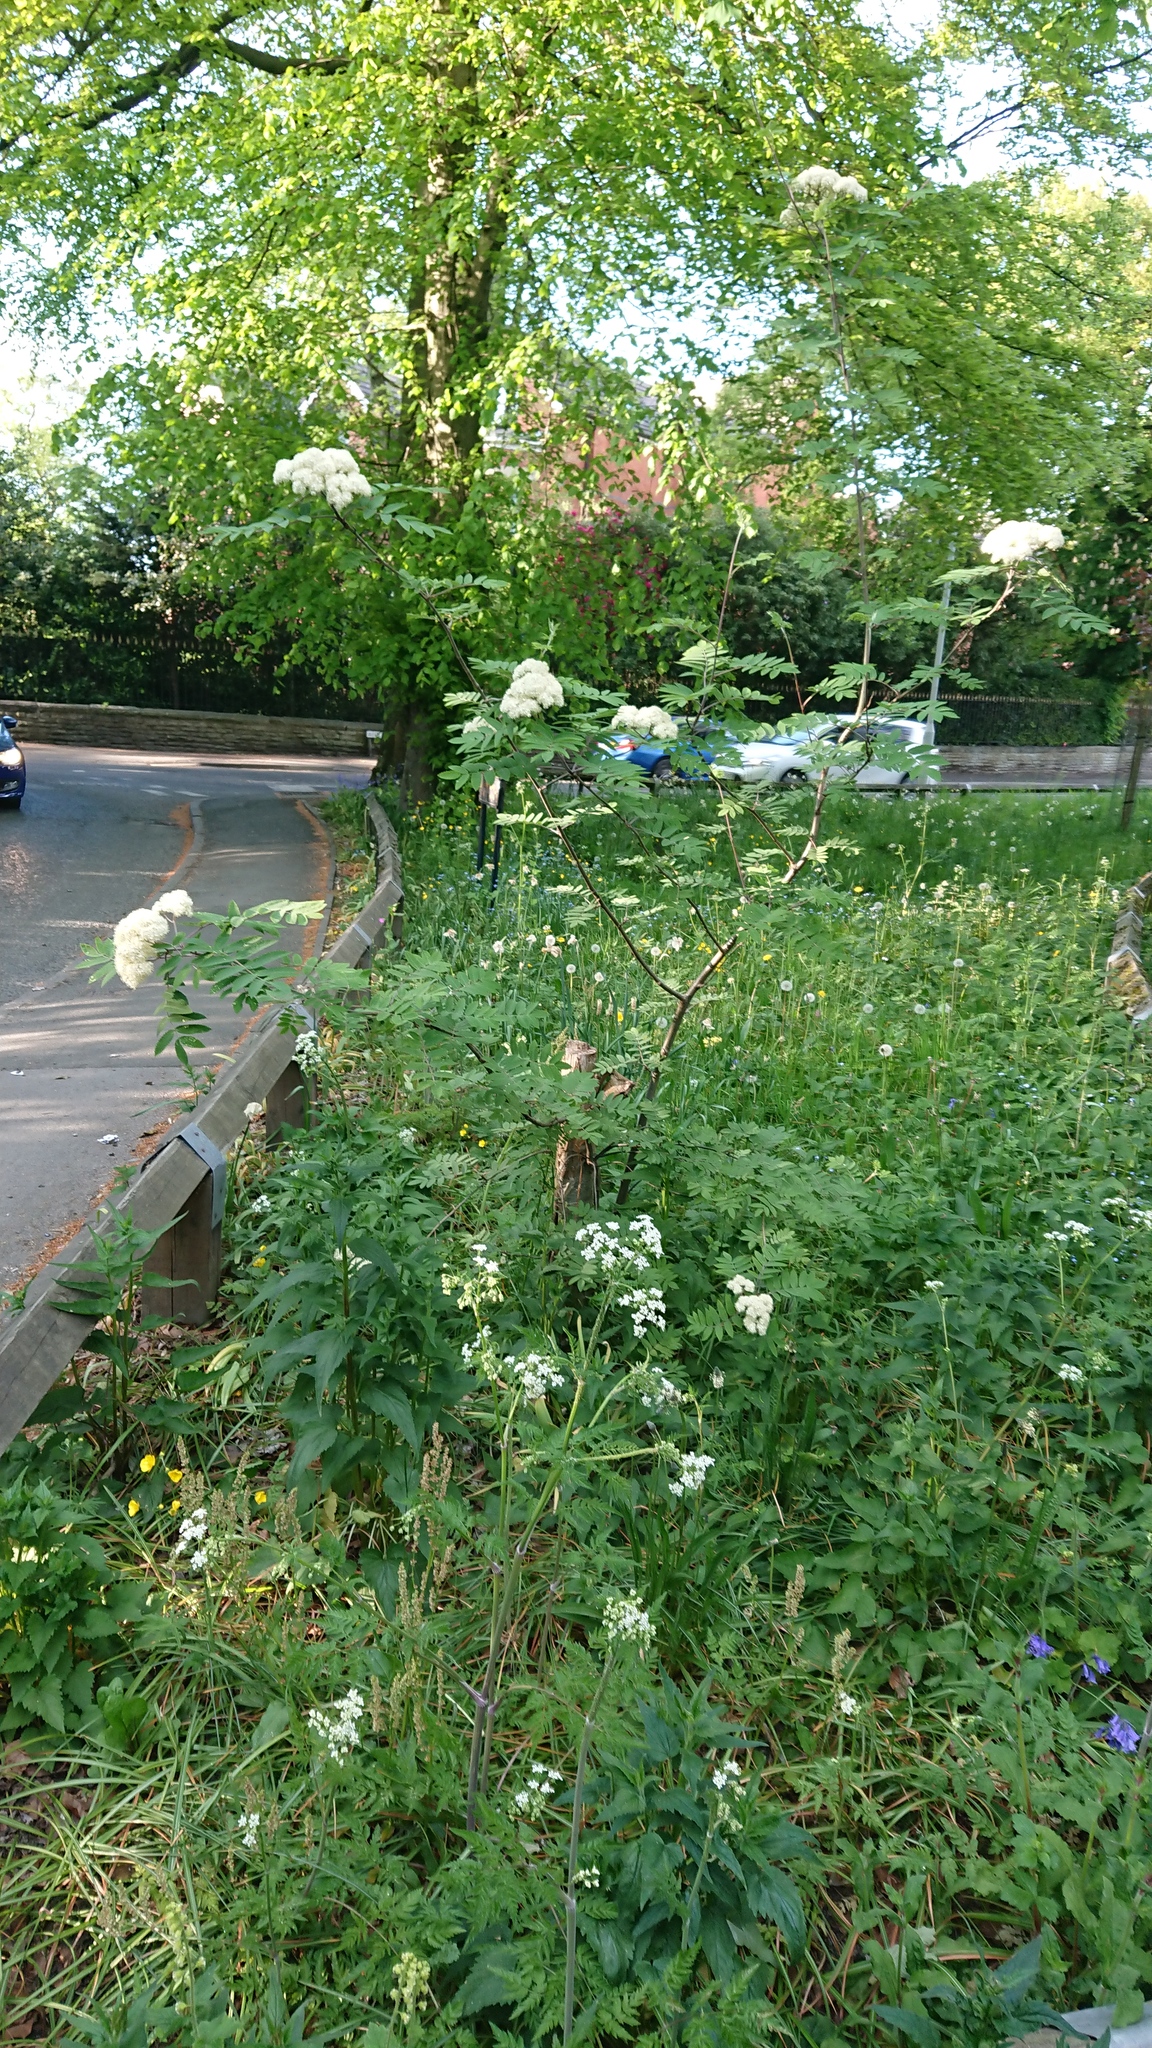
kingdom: Plantae
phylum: Tracheophyta
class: Magnoliopsida
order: Rosales
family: Rosaceae
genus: Sorbus
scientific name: Sorbus aucuparia
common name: Rowan
